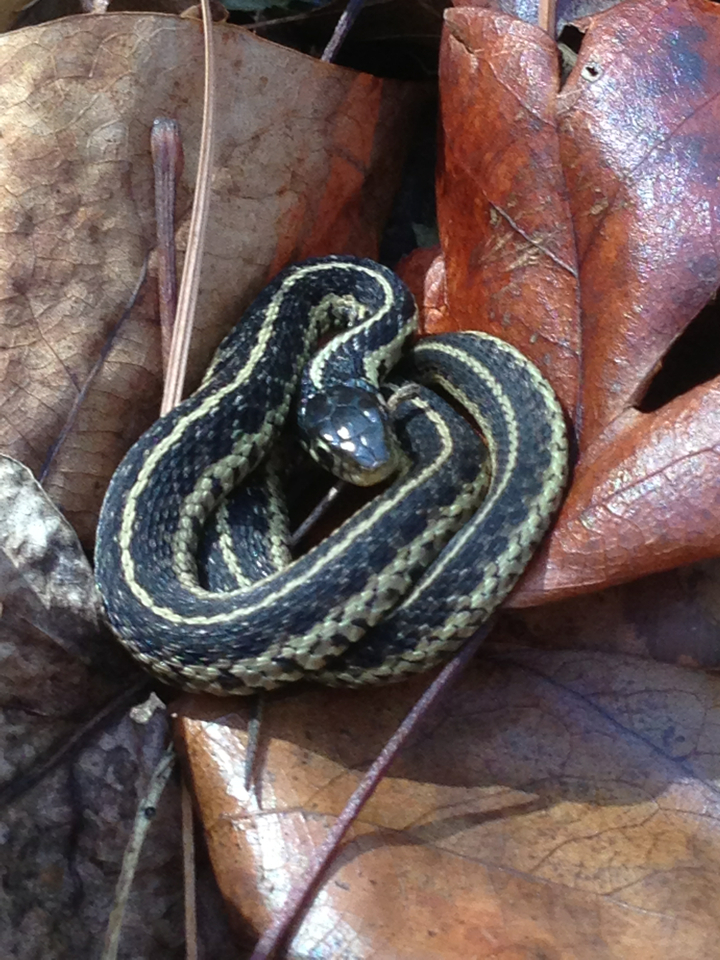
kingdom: Animalia
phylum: Chordata
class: Squamata
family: Colubridae
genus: Thamnophis
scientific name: Thamnophis sirtalis
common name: Common garter snake
